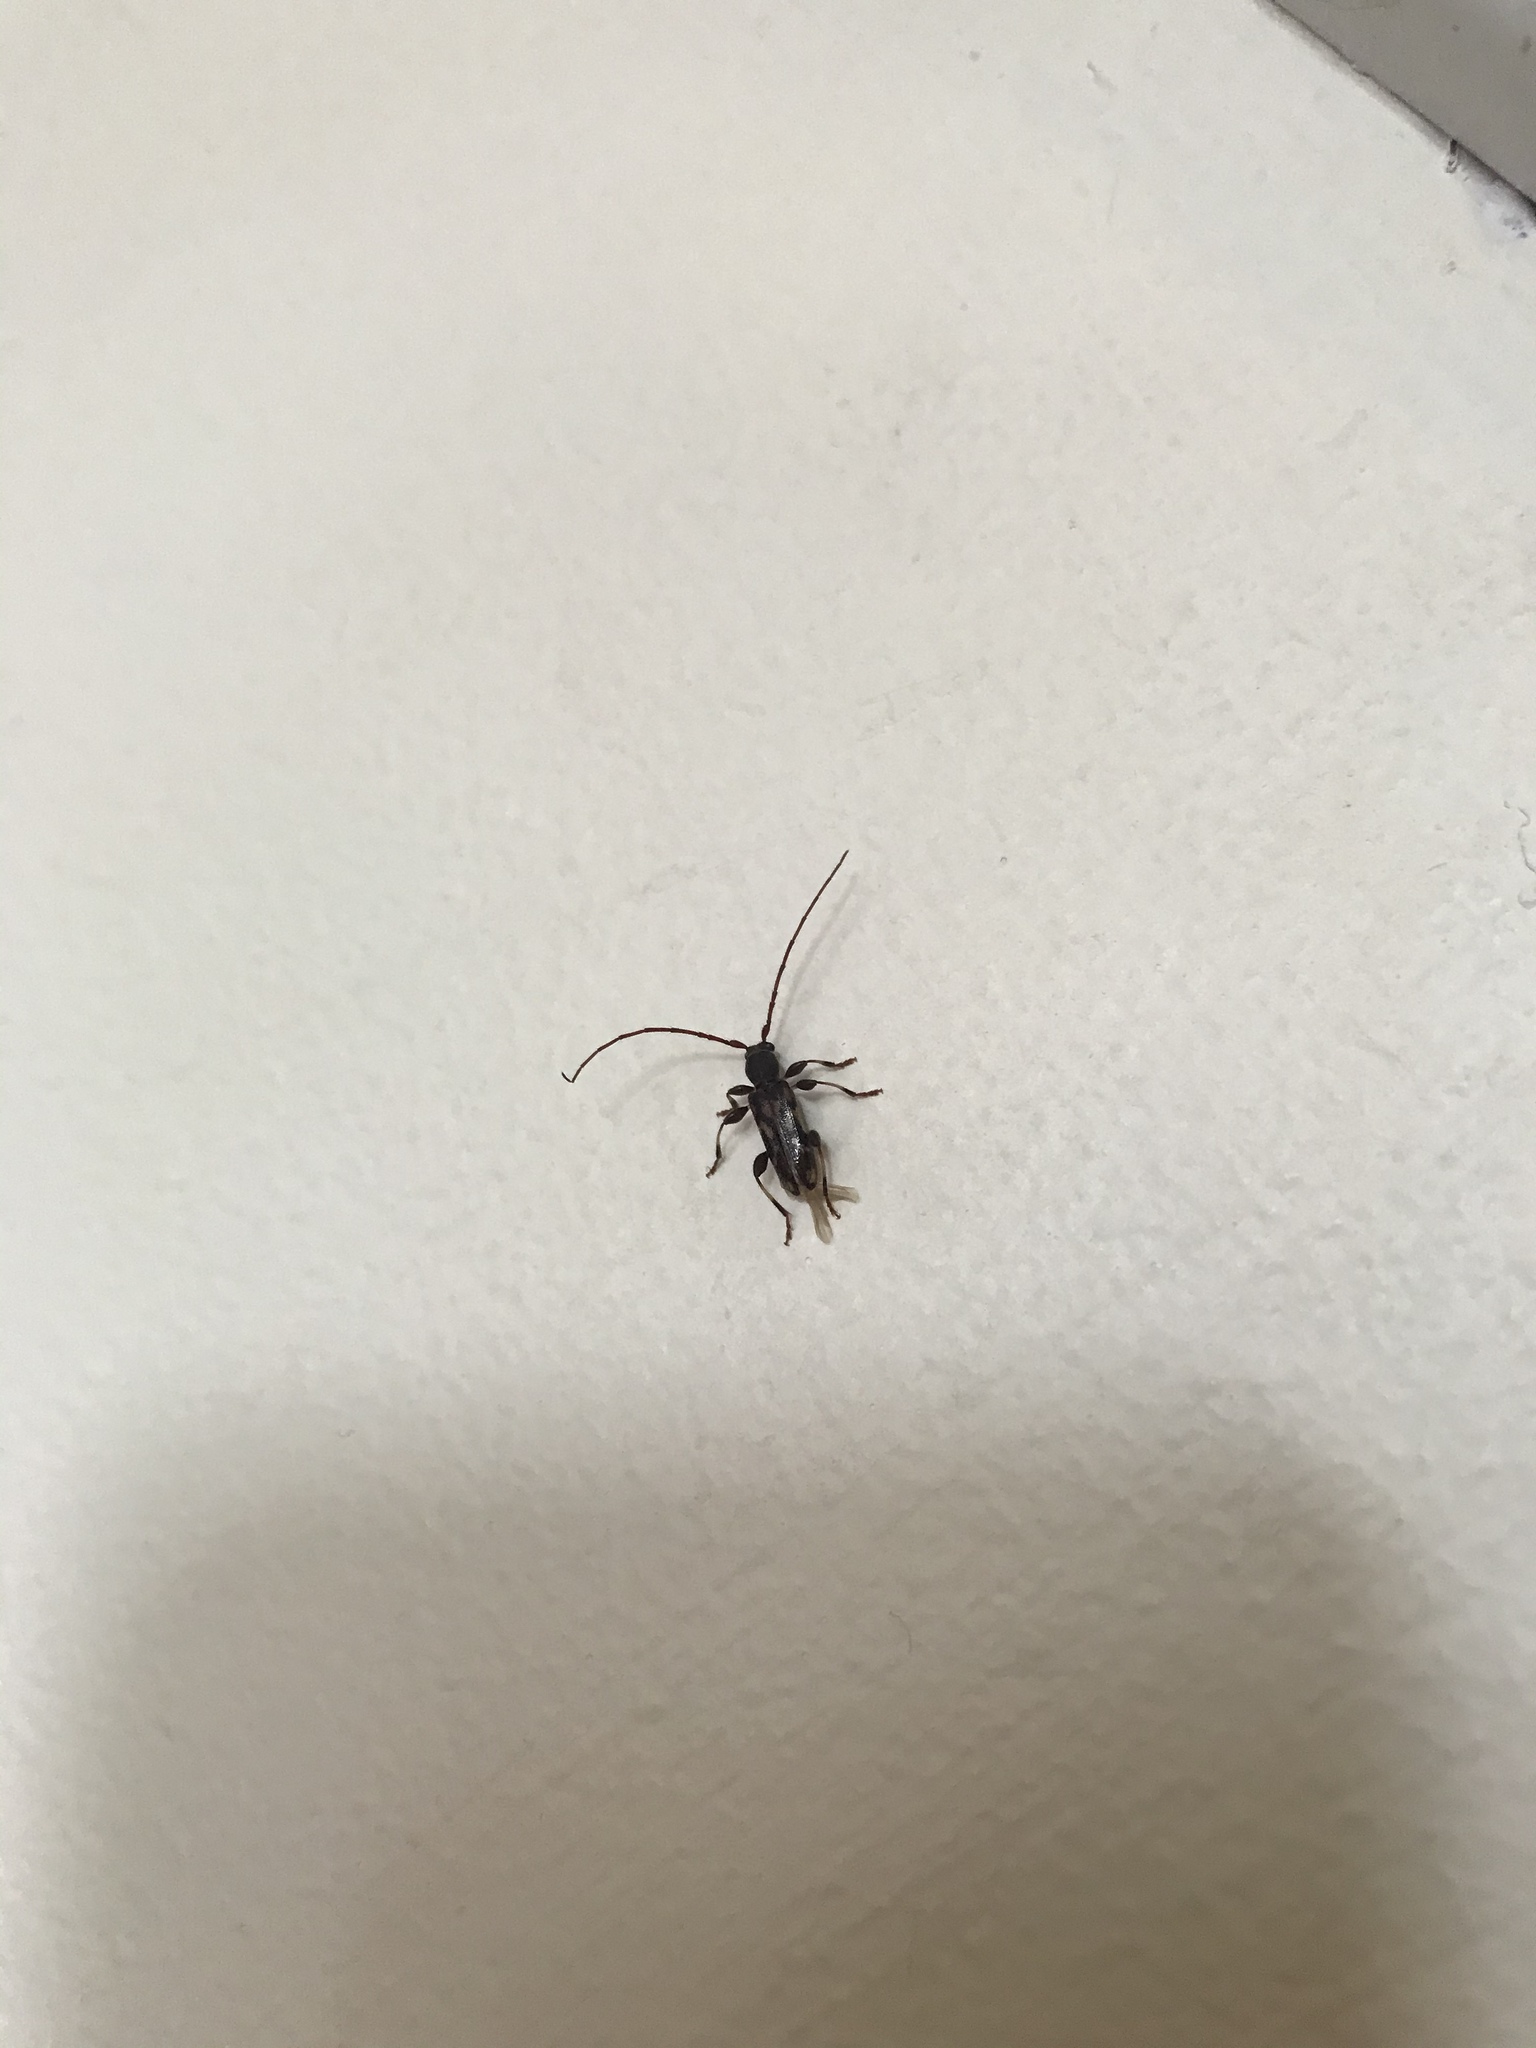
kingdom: Animalia
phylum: Arthropoda
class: Insecta
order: Coleoptera
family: Cerambycidae
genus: Bethelium
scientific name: Bethelium signiferum
